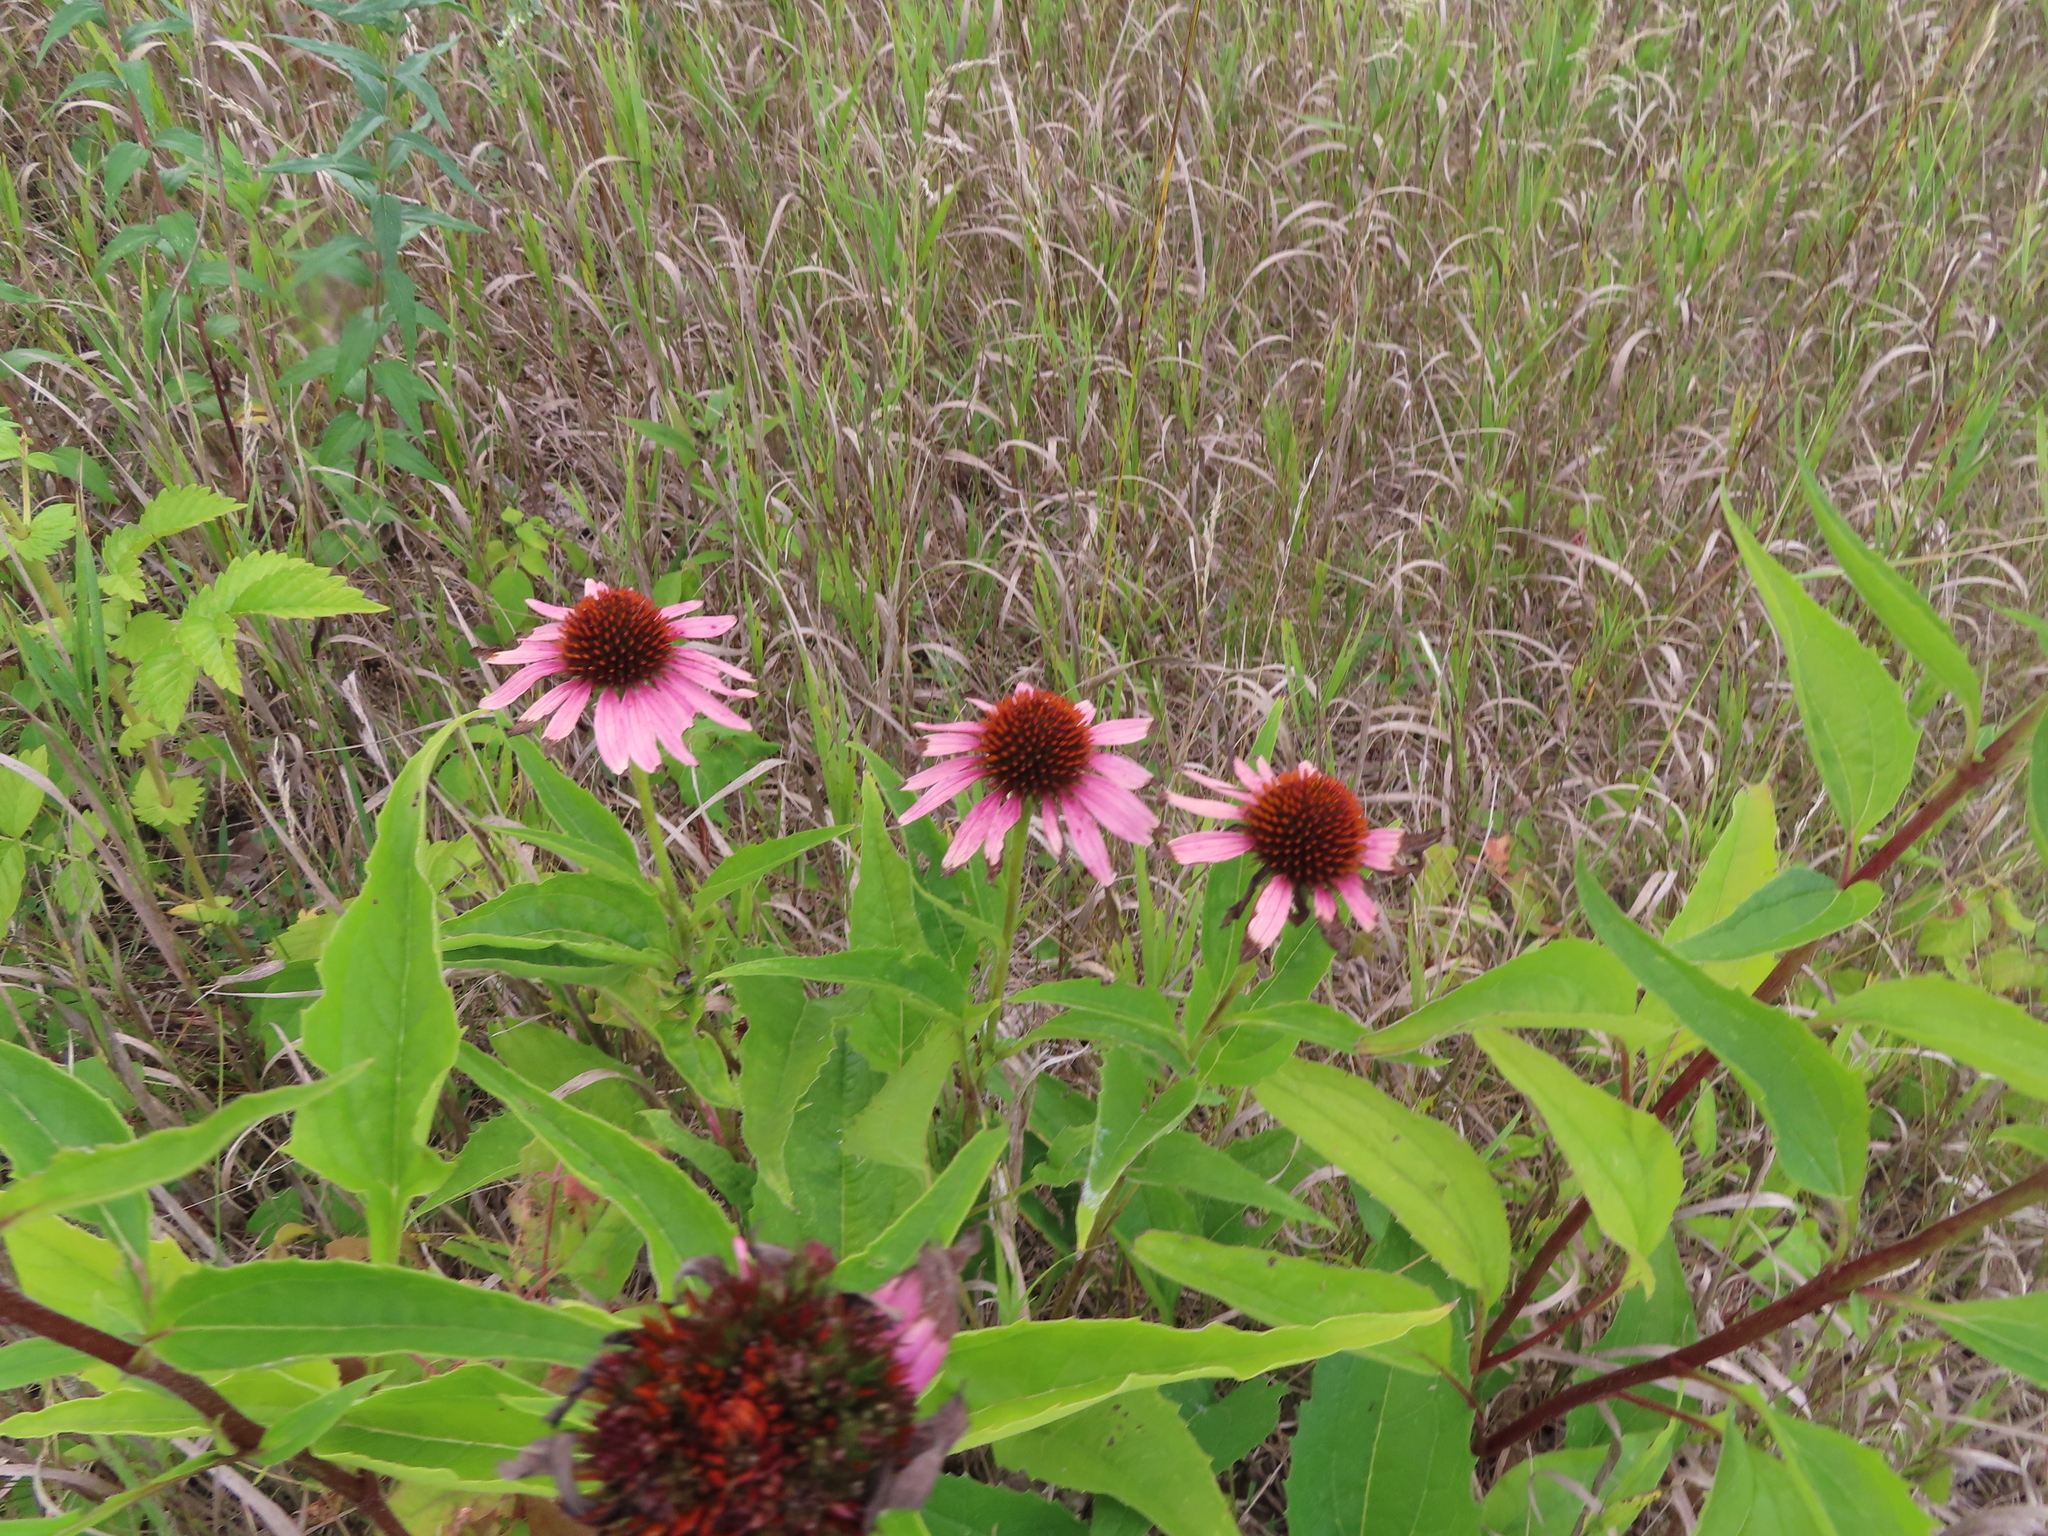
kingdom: Plantae
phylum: Tracheophyta
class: Magnoliopsida
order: Asterales
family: Asteraceae
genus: Echinacea
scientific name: Echinacea purpurea
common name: Broad-leaved purple coneflower
